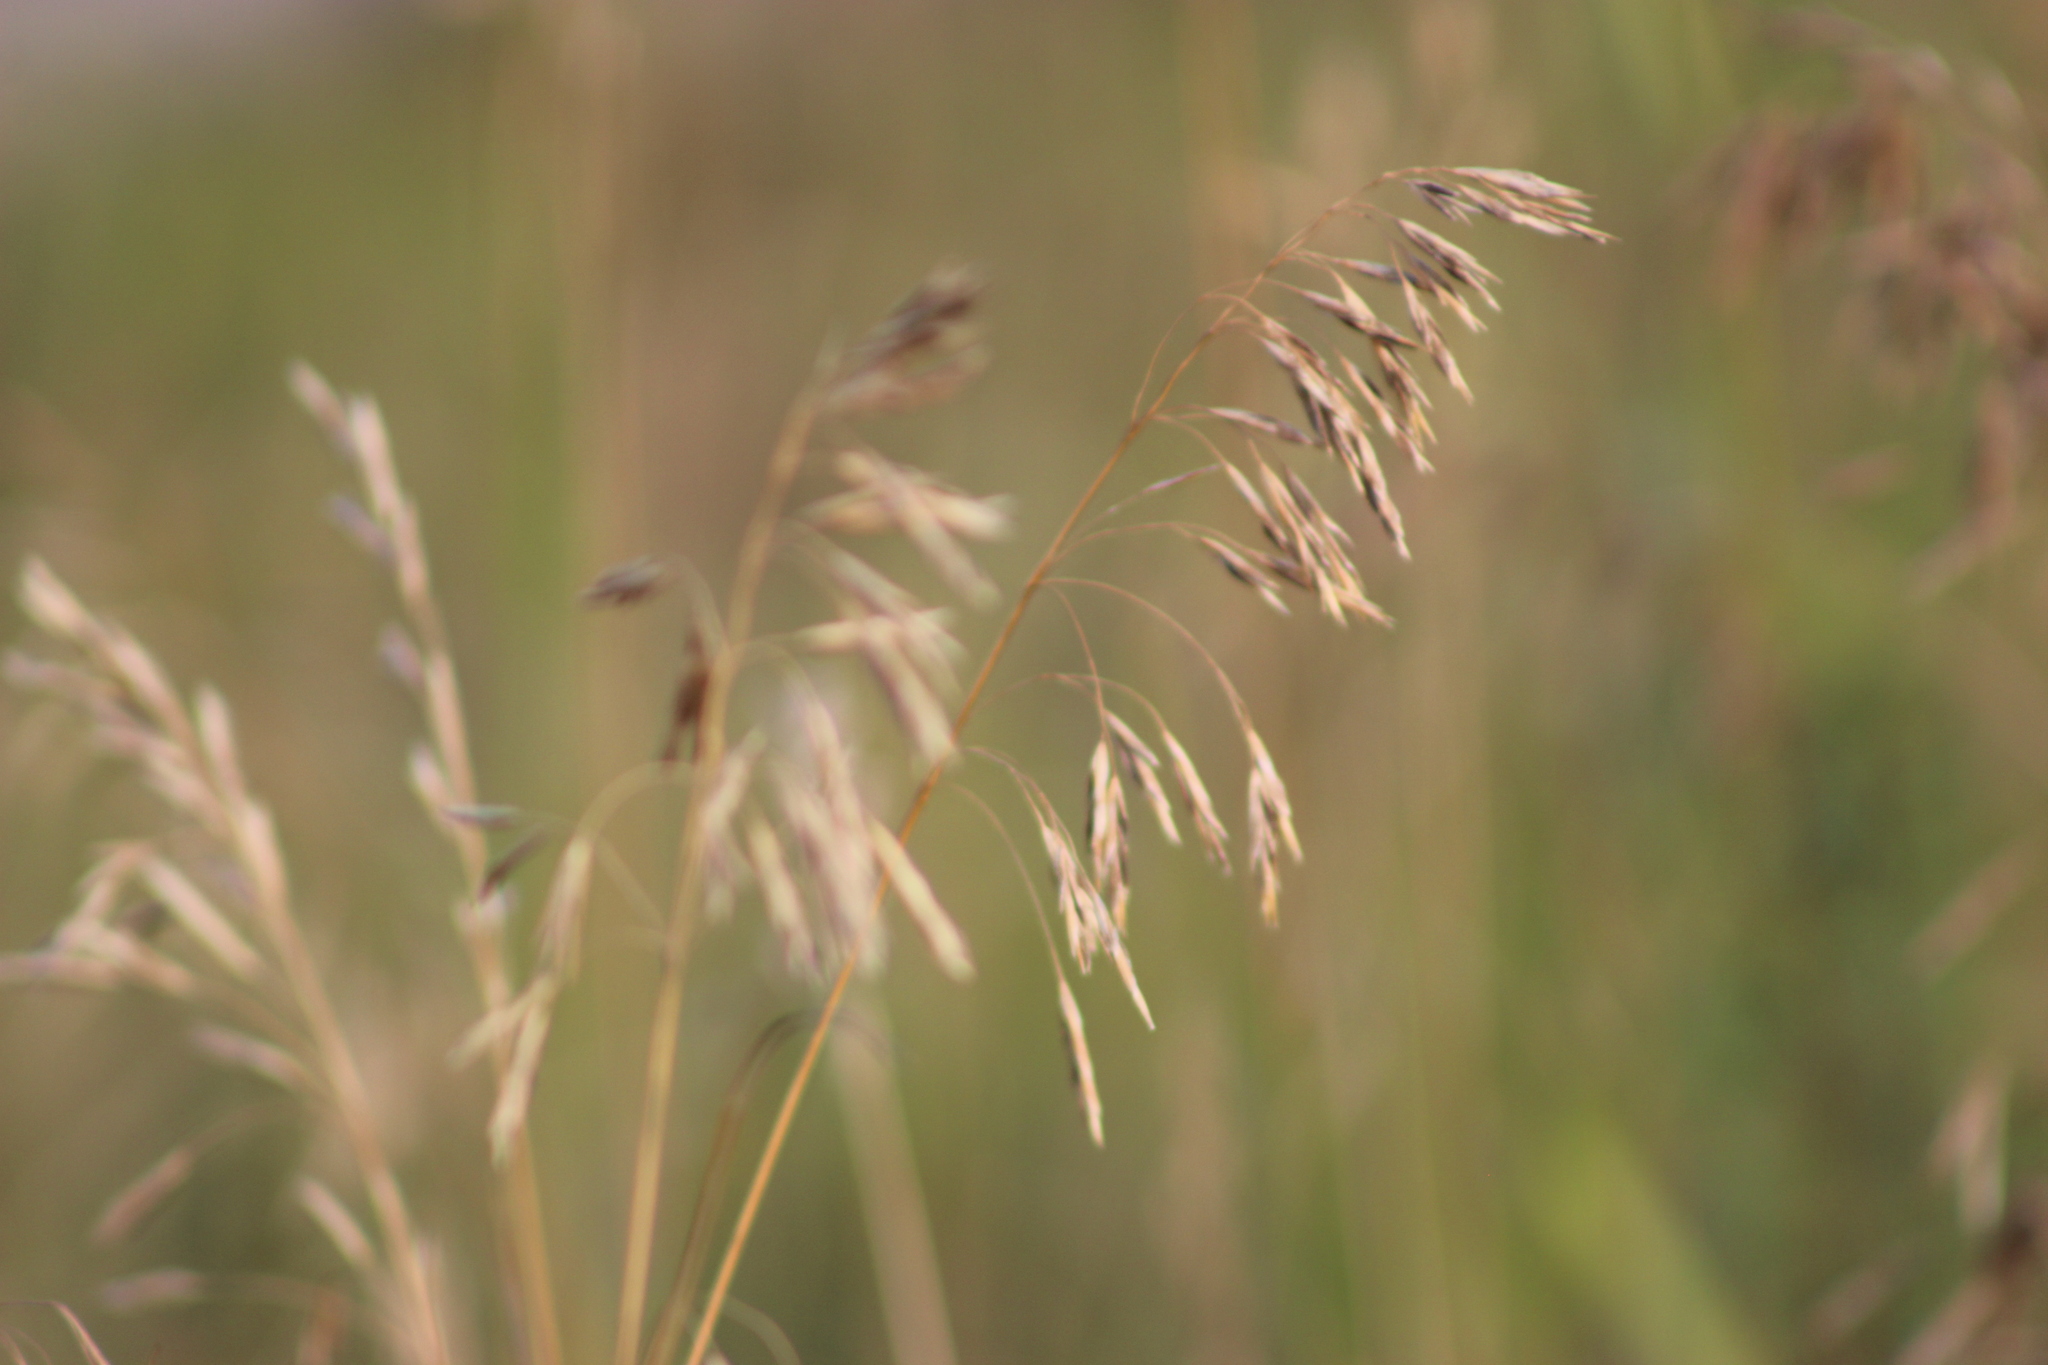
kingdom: Plantae
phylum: Tracheophyta
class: Liliopsida
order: Poales
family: Poaceae
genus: Bromus
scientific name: Bromus inermis
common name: Smooth brome
